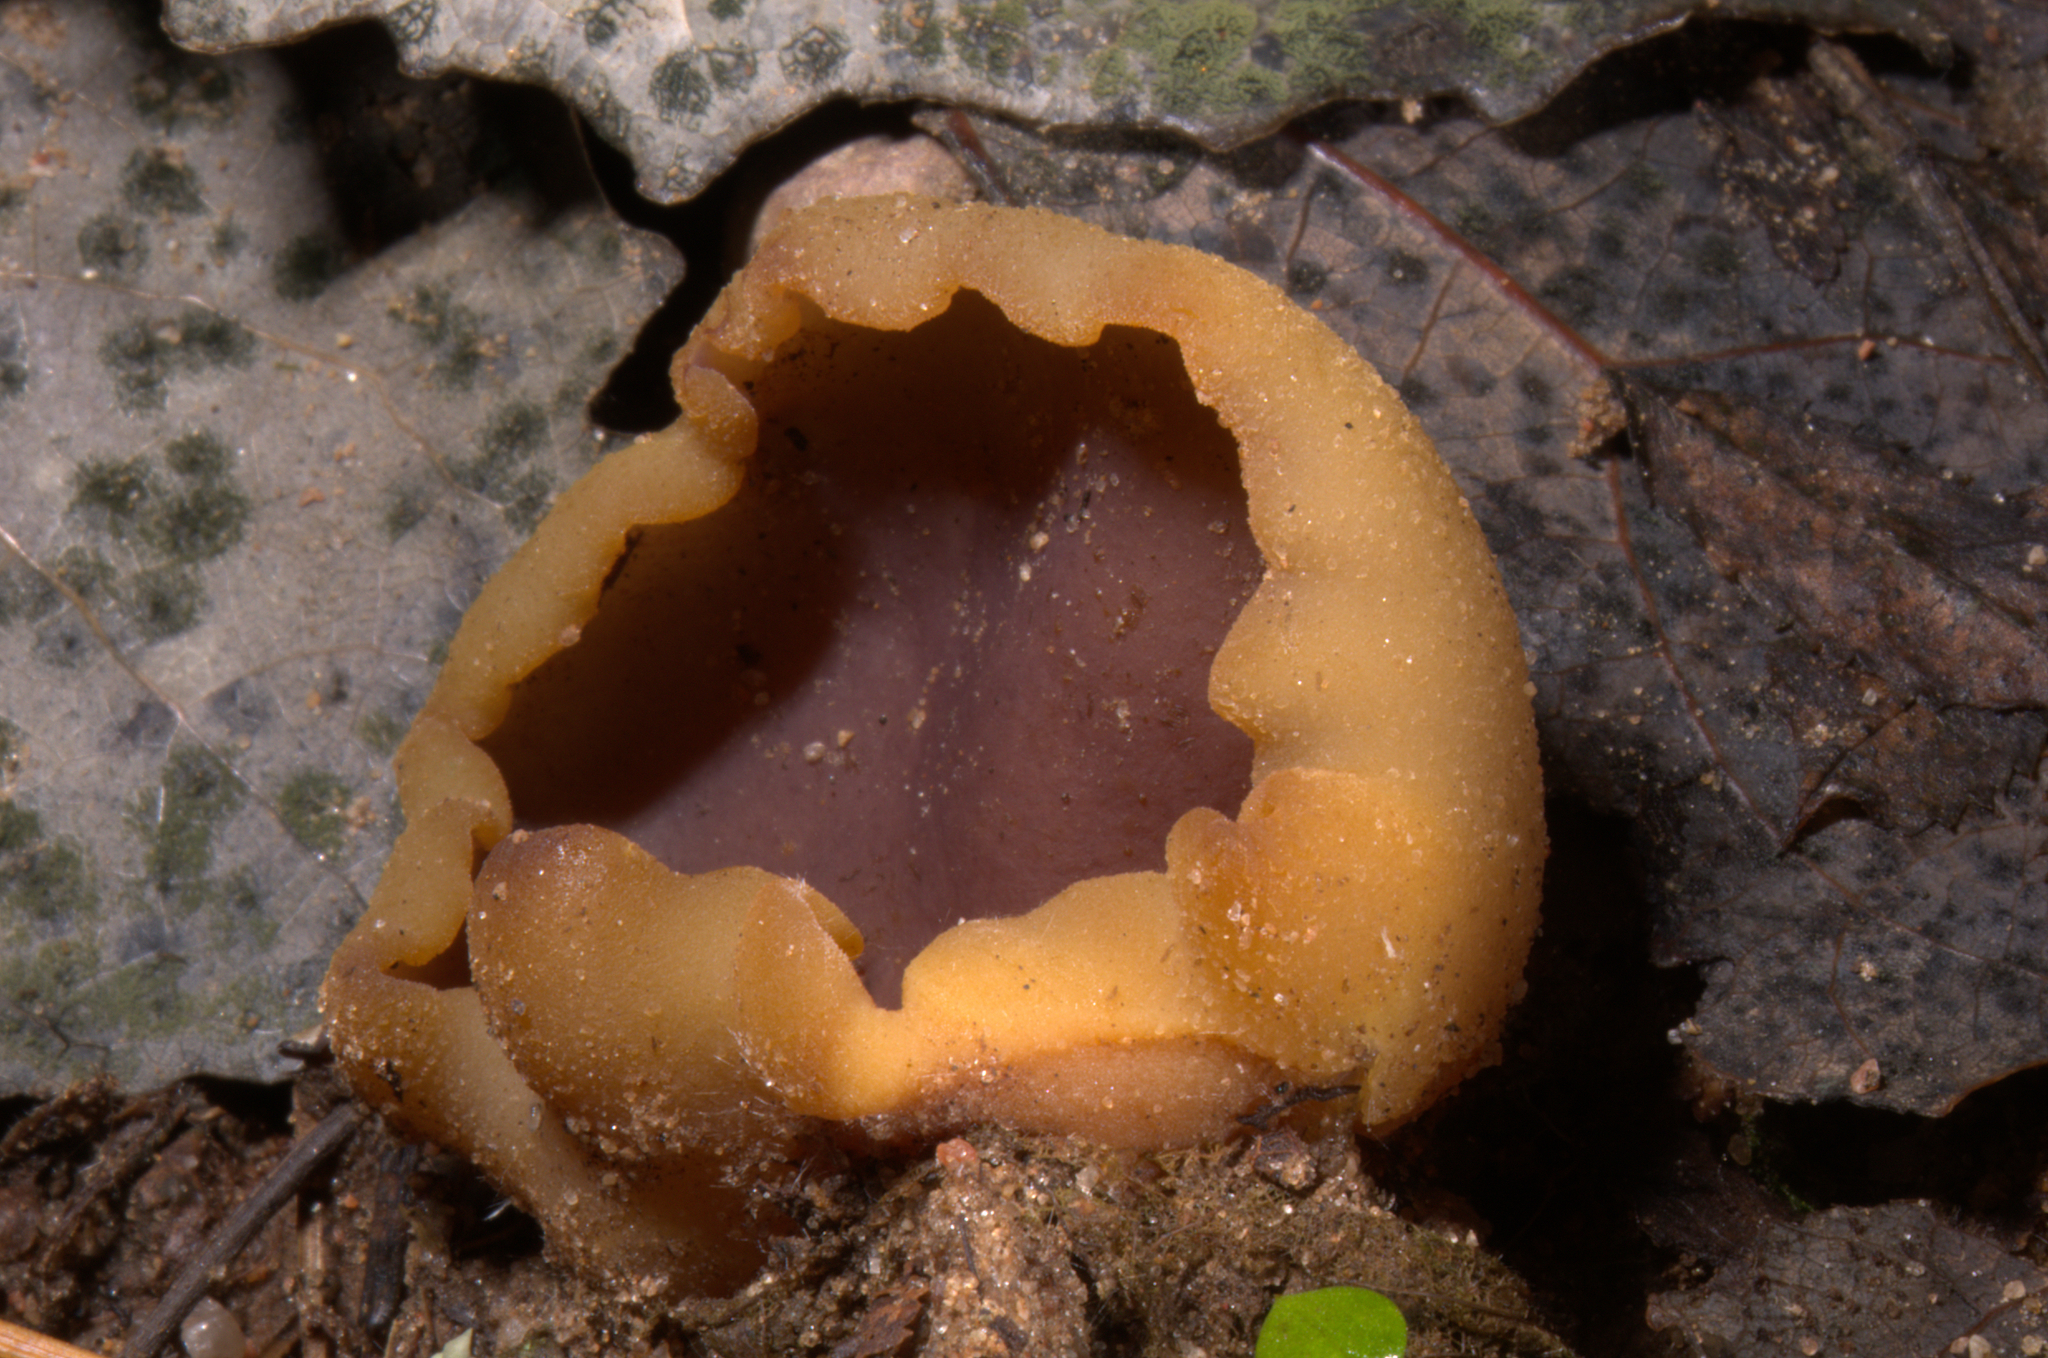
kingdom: Fungi
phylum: Ascomycota
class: Pezizomycetes
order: Pezizales
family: Pezizaceae
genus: Paragalactinia
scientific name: Paragalactinia michelii
